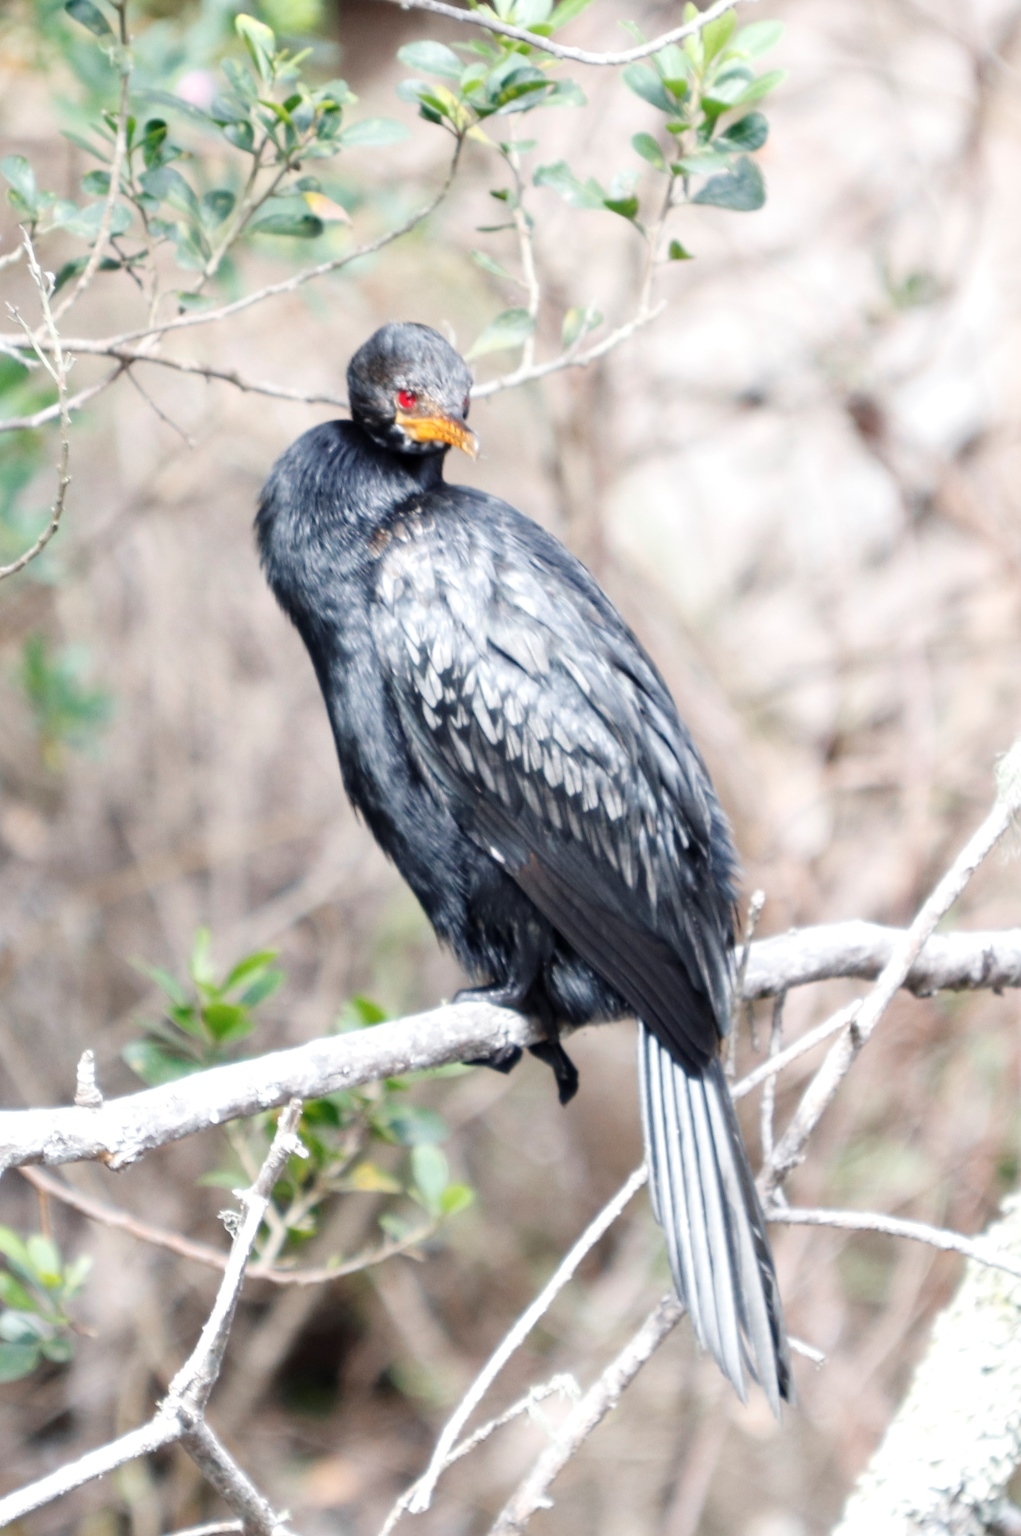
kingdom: Animalia
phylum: Chordata
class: Aves
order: Suliformes
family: Phalacrocoracidae
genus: Microcarbo
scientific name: Microcarbo africanus
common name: Long-tailed cormorant
